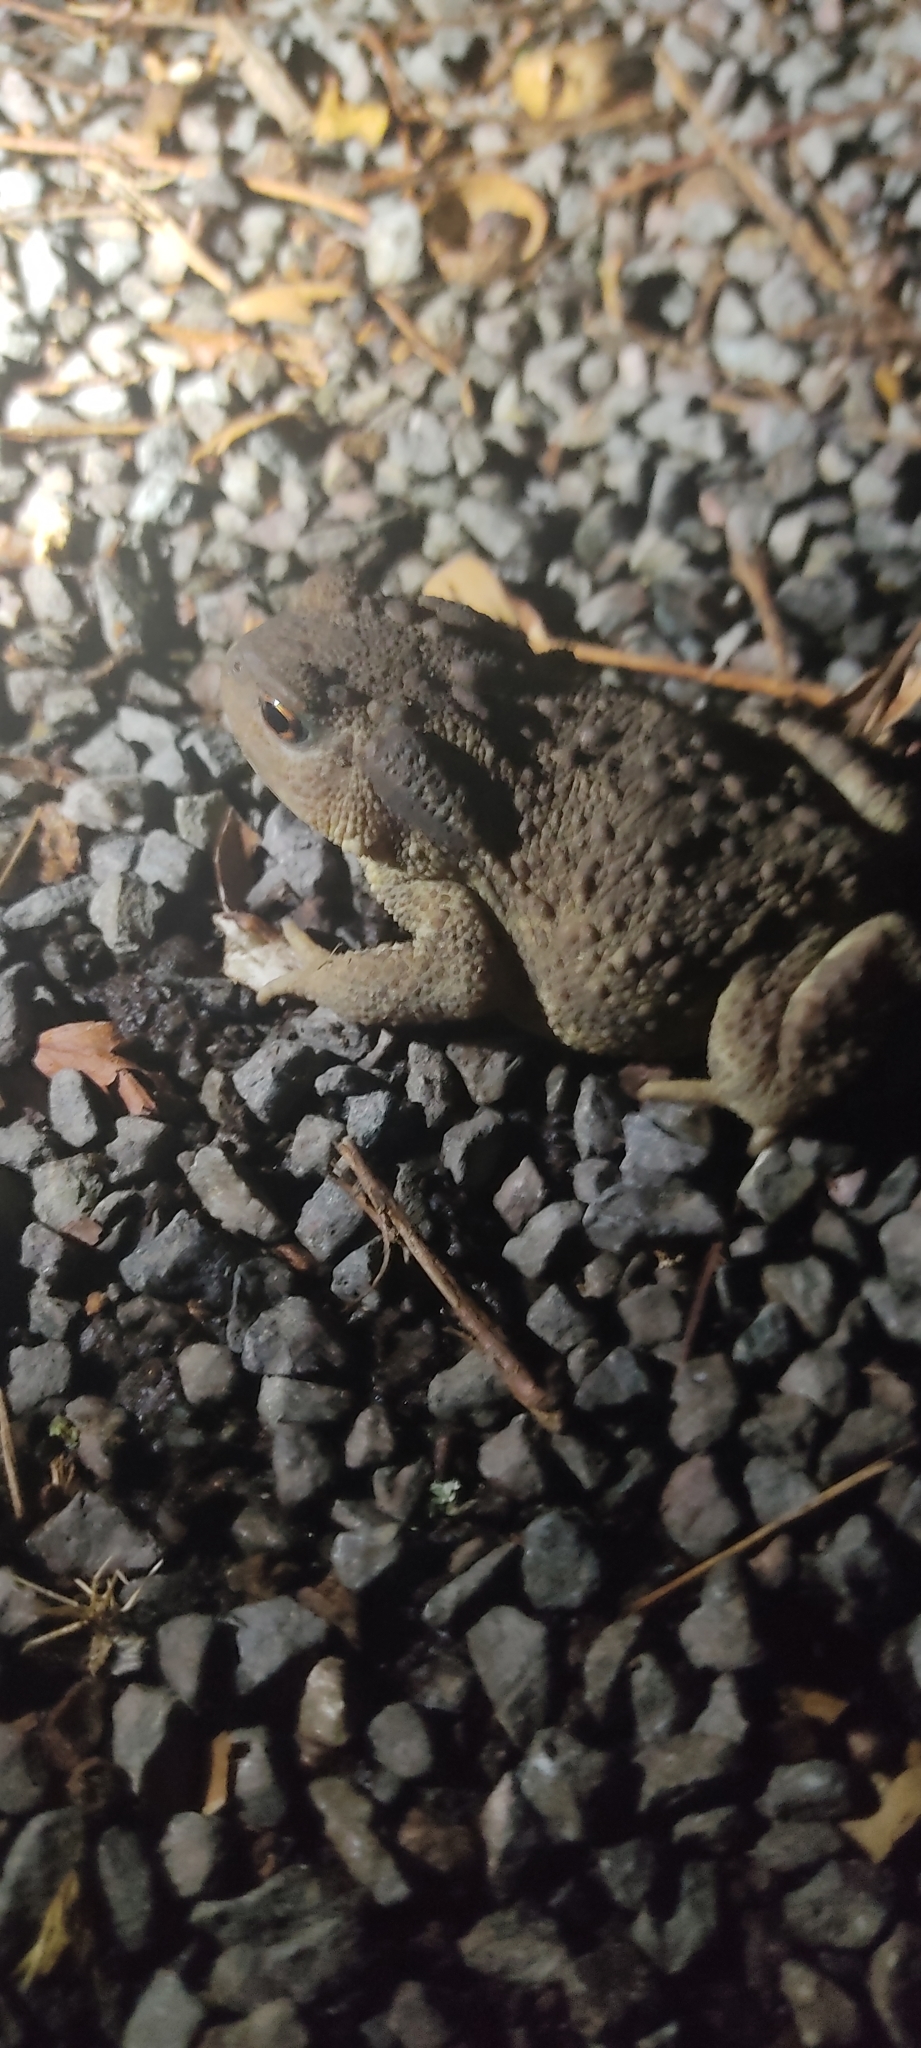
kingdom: Animalia
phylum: Chordata
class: Amphibia
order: Anura
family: Bufonidae
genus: Bufo
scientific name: Bufo spinosus
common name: Western common toad
